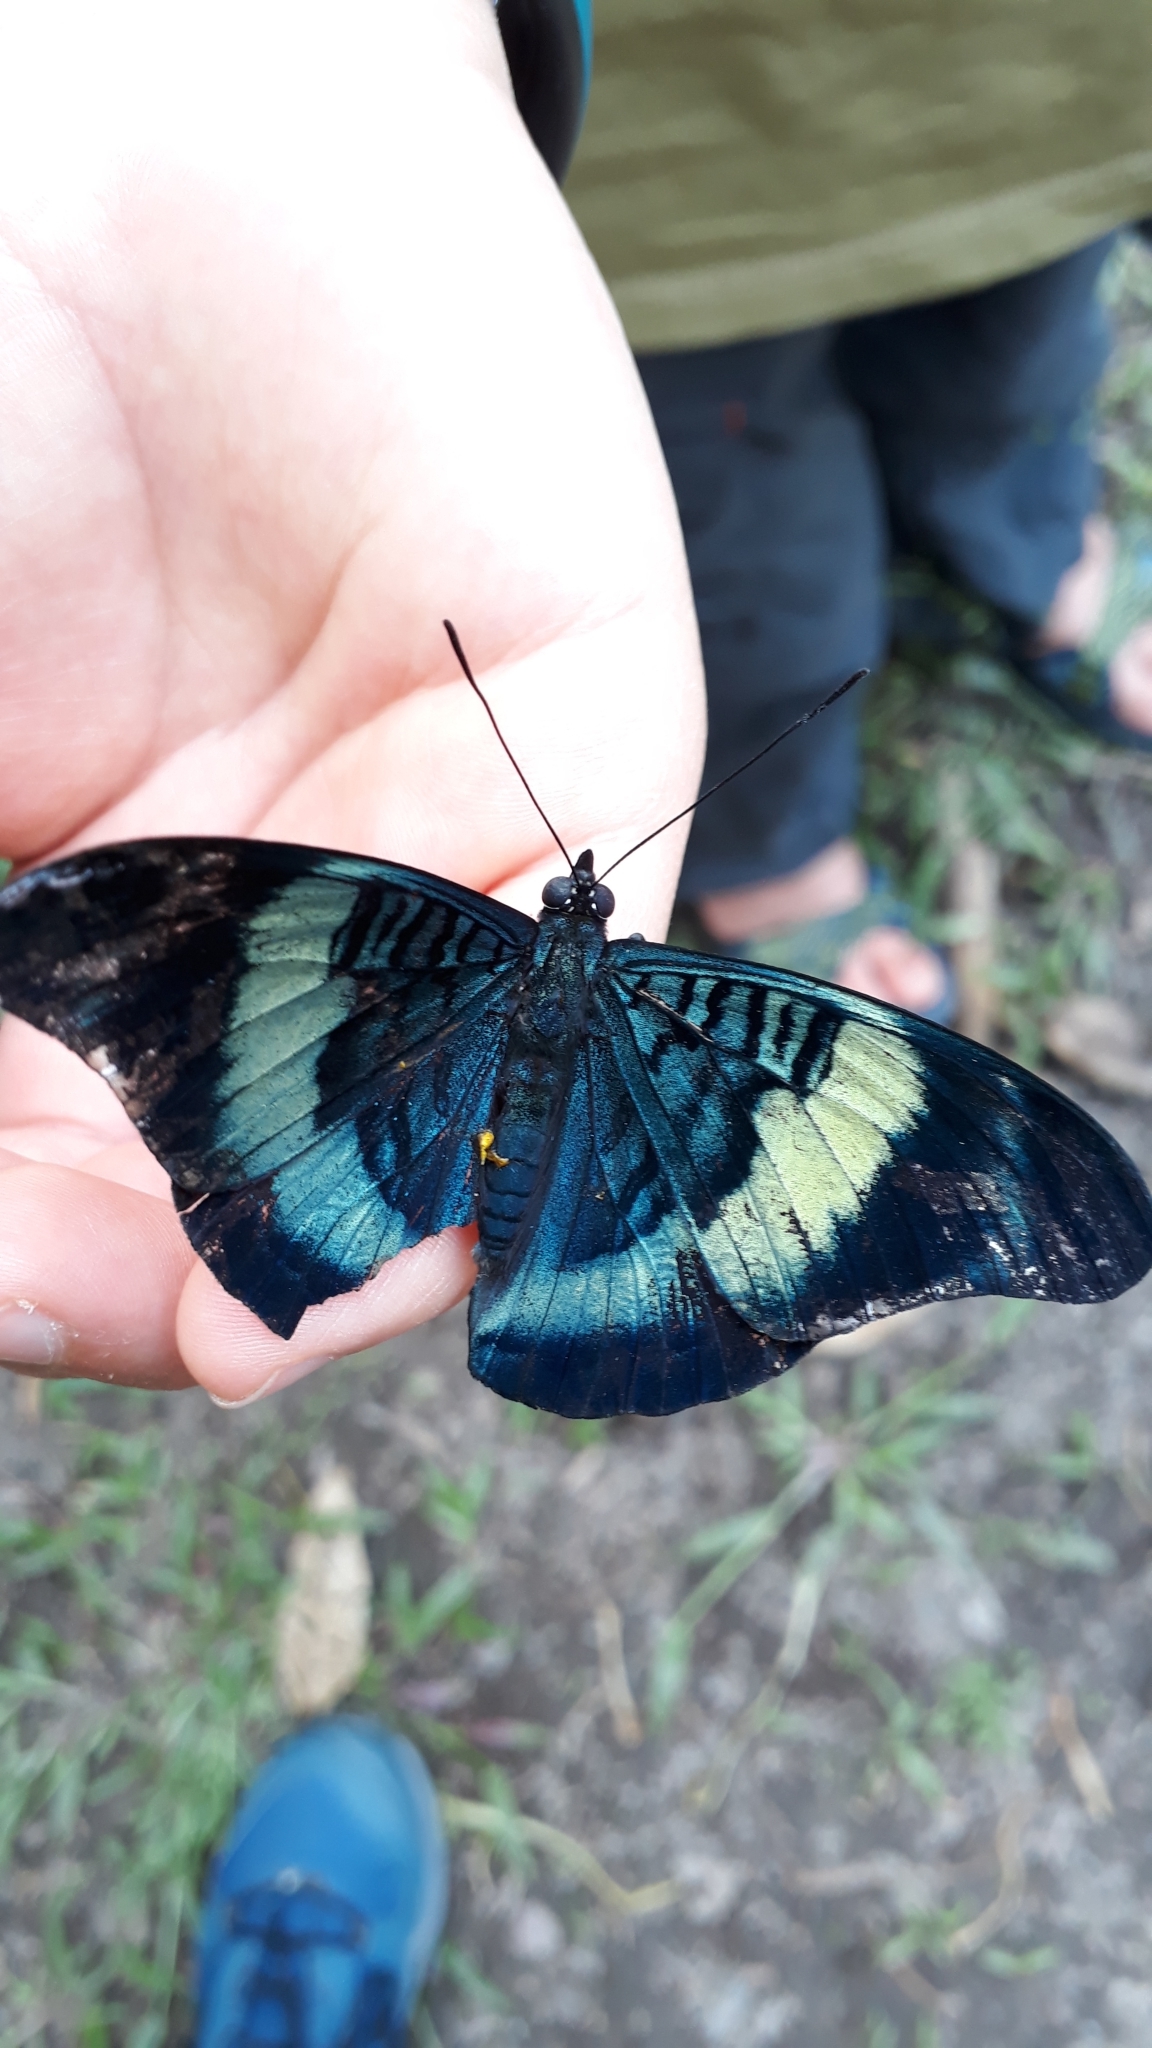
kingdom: Animalia
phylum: Arthropoda
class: Insecta
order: Lepidoptera
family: Nymphalidae
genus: Panacea
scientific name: Panacea prola
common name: Red flasher
